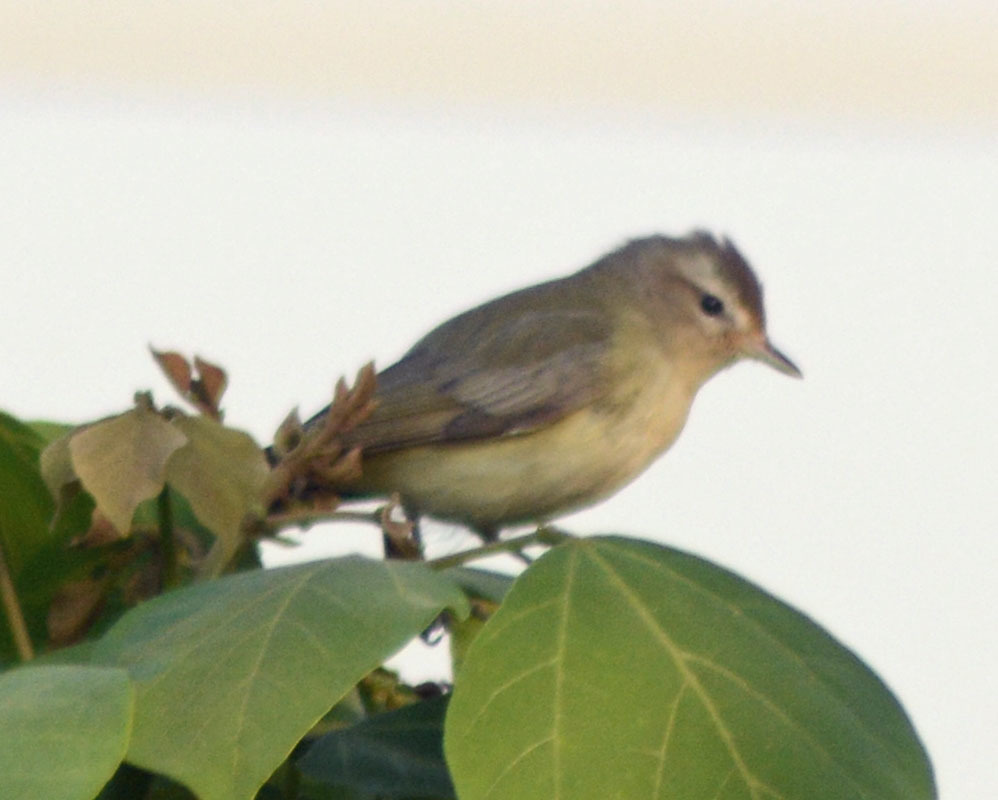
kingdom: Animalia
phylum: Chordata
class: Aves
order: Passeriformes
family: Vireonidae
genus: Vireo
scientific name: Vireo gilvus
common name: Warbling vireo
